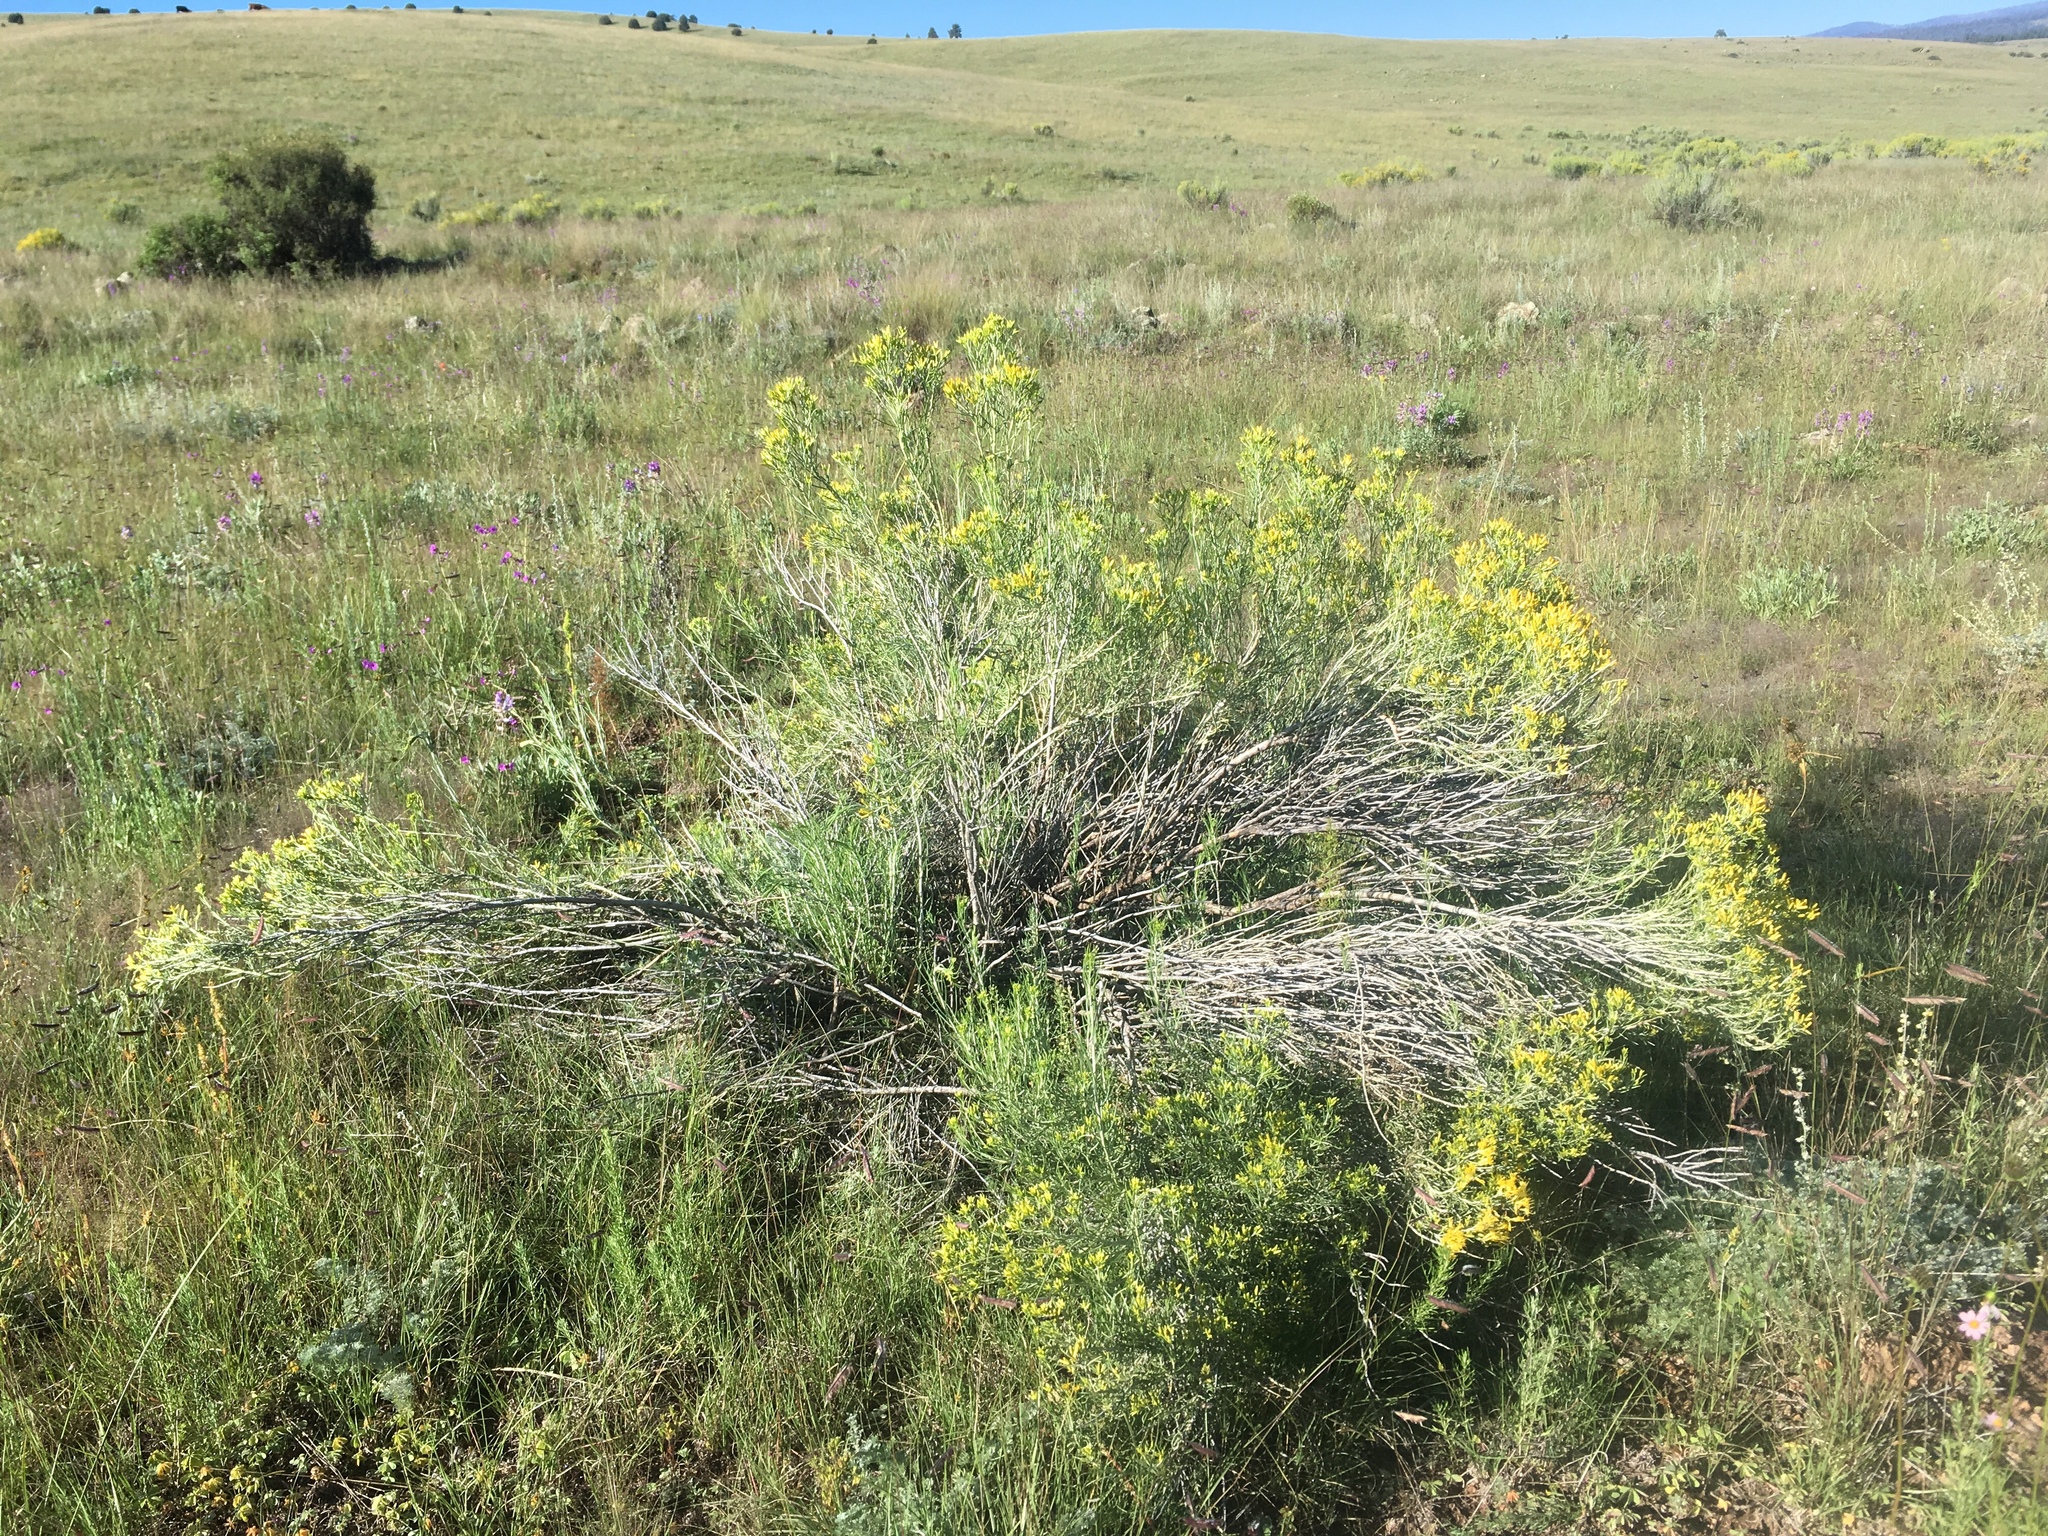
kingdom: Plantae
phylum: Tracheophyta
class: Magnoliopsida
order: Asterales
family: Asteraceae
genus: Ericameria
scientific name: Ericameria nauseosa
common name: Rubber rabbitbrush
